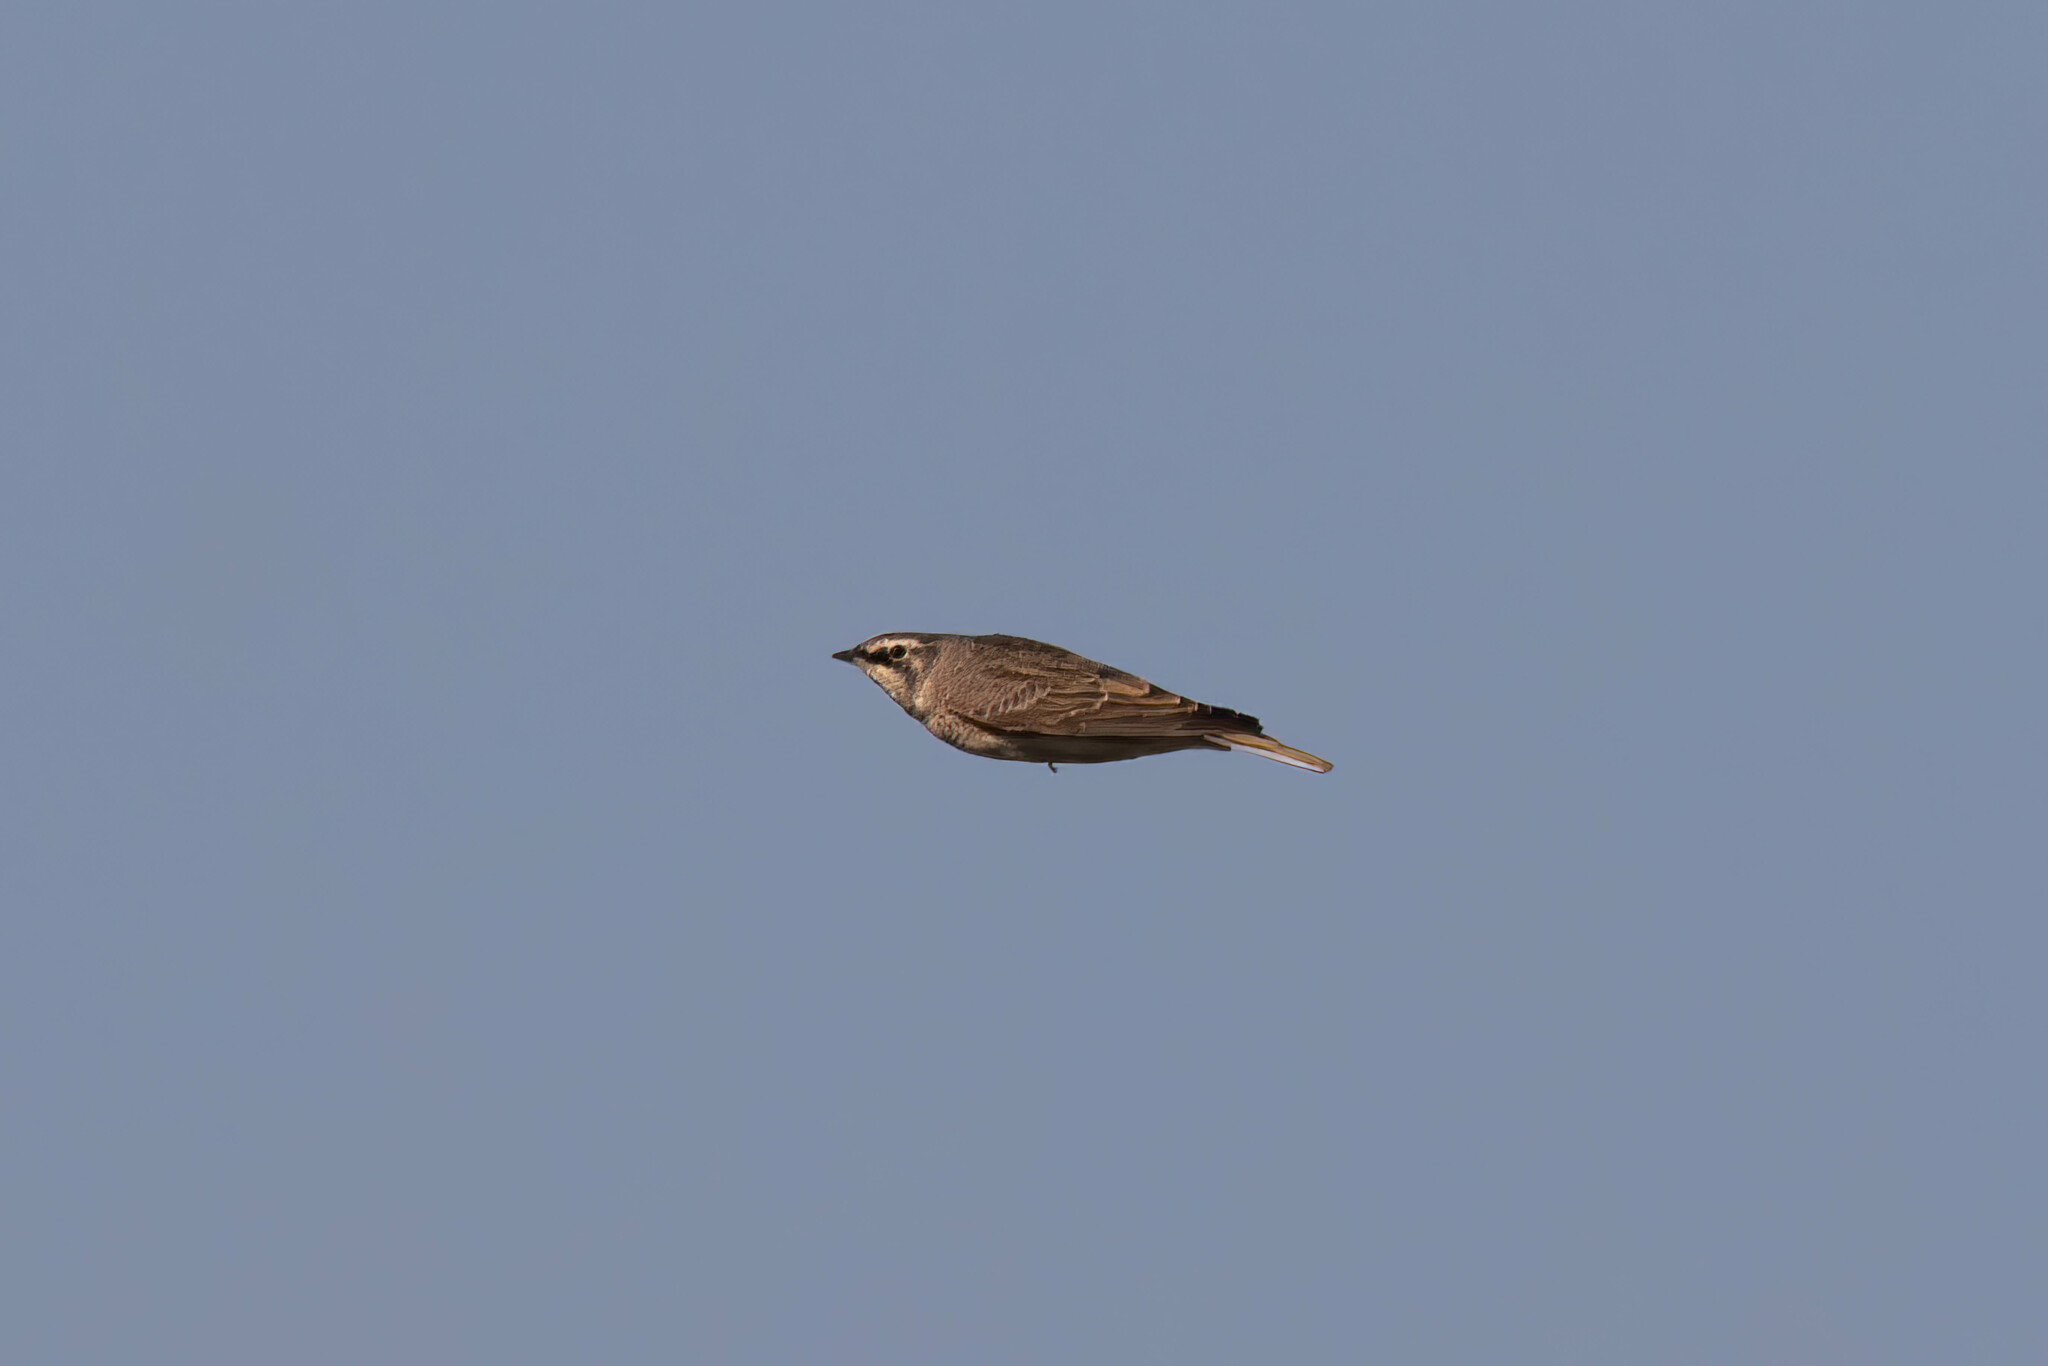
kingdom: Animalia
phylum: Chordata
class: Aves
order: Passeriformes
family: Alaudidae
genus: Eremophila
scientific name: Eremophila alpestris
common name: Horned lark
